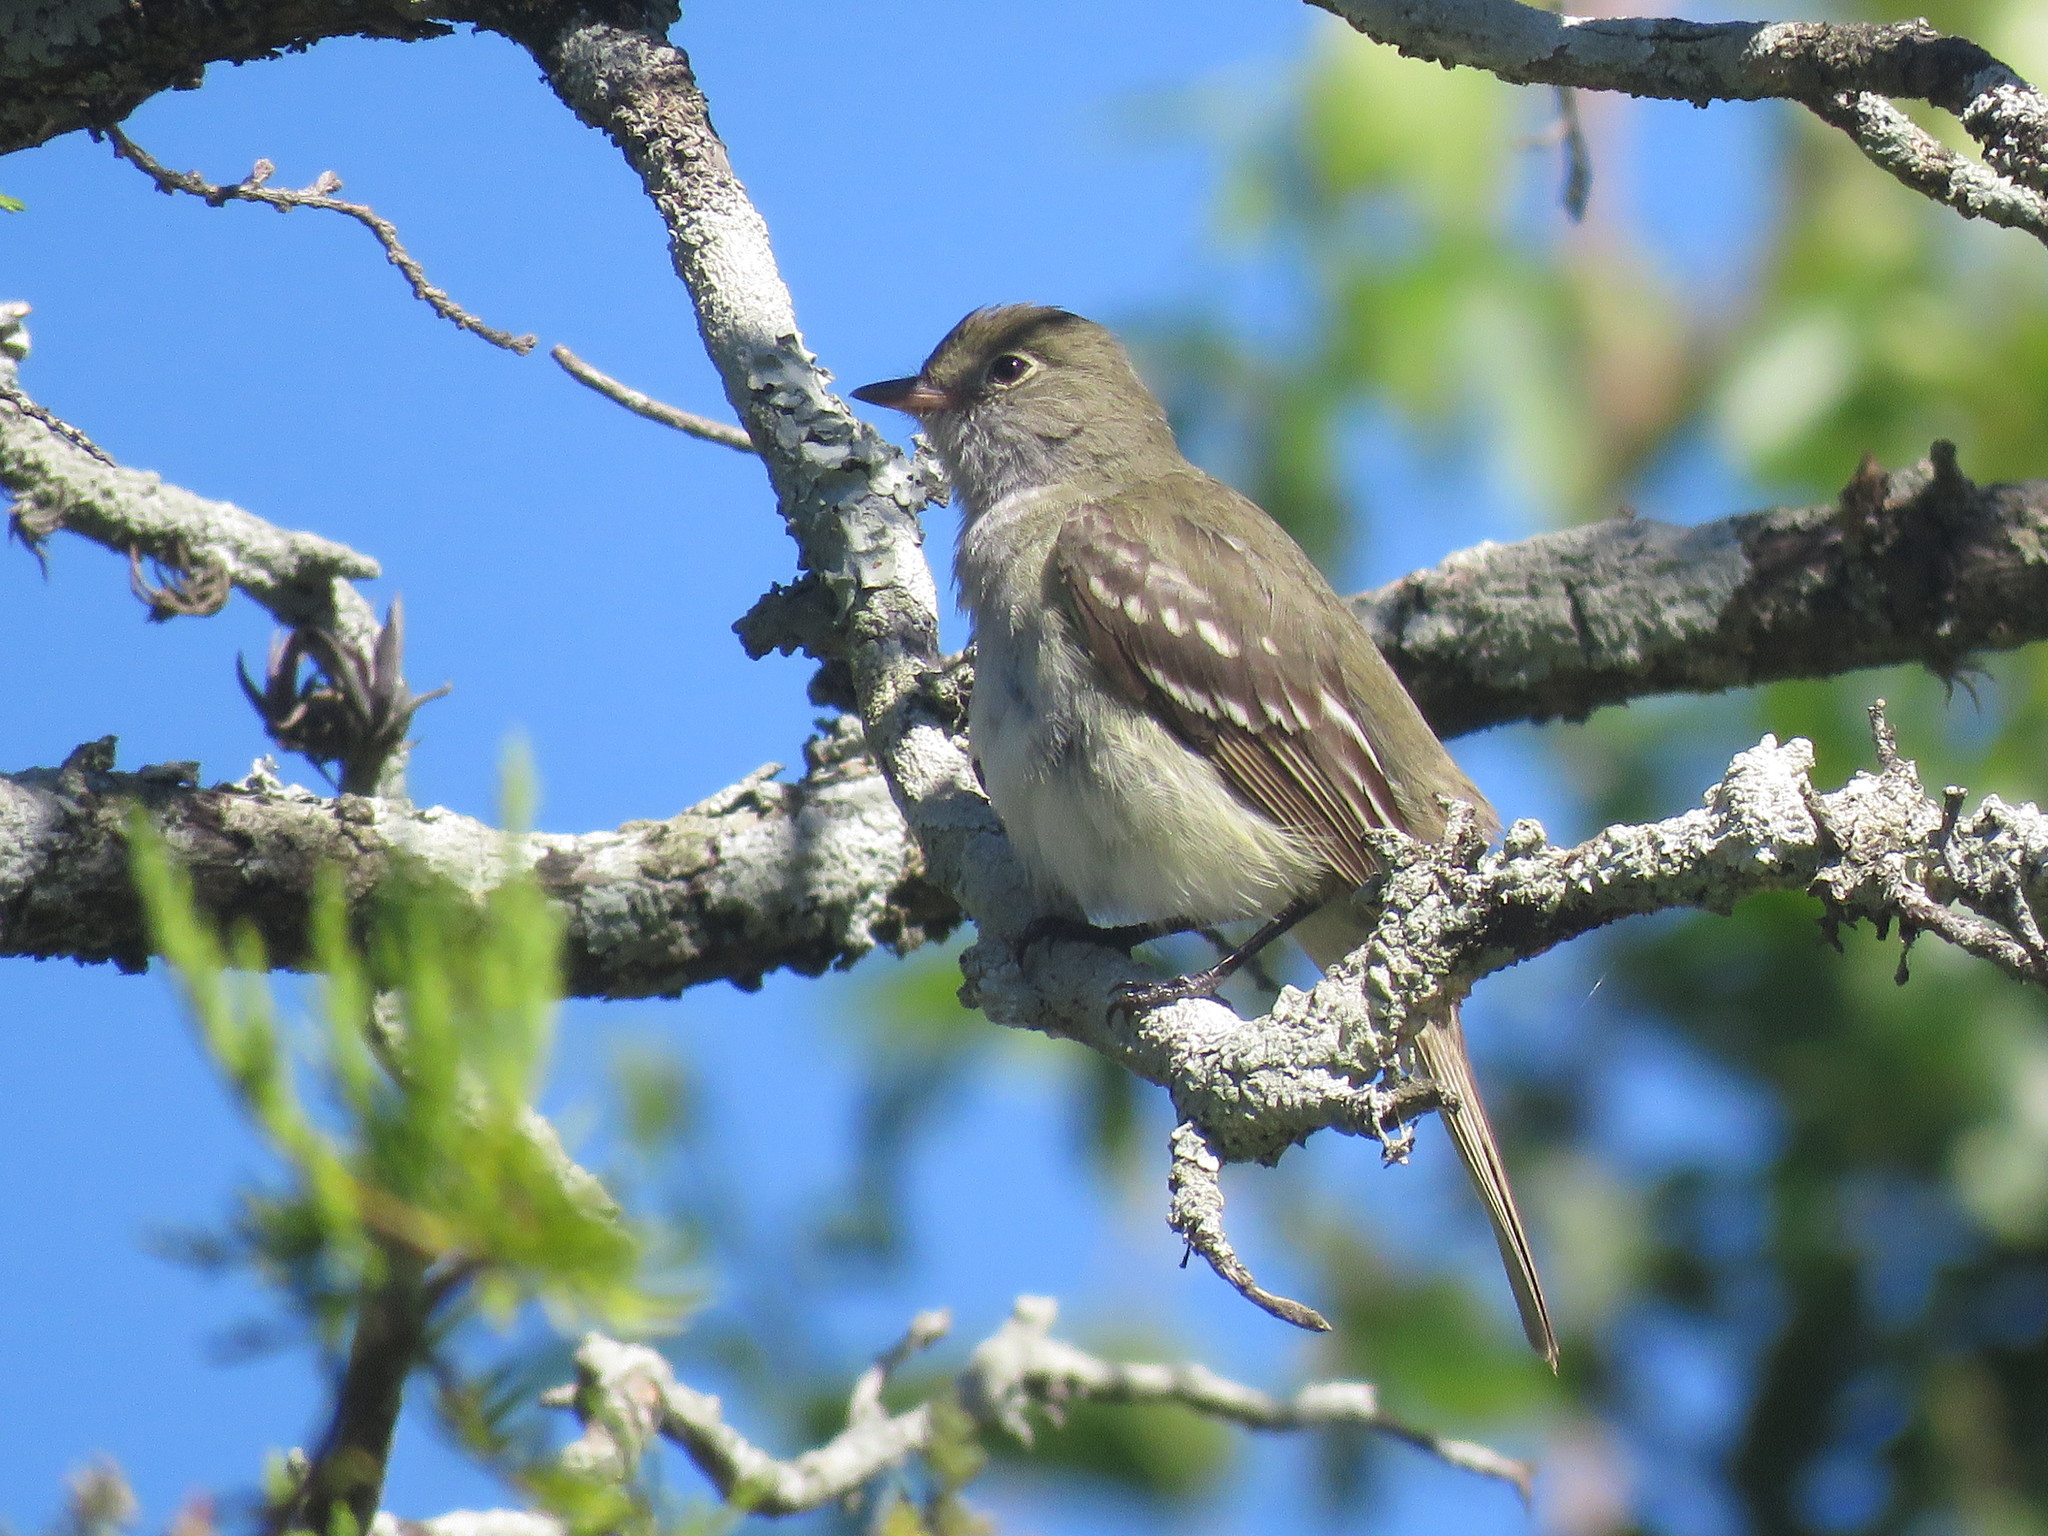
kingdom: Animalia
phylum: Chordata
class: Aves
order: Passeriformes
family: Tyrannidae
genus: Elaenia
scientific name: Elaenia parvirostris
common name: Small-billed elaenia
